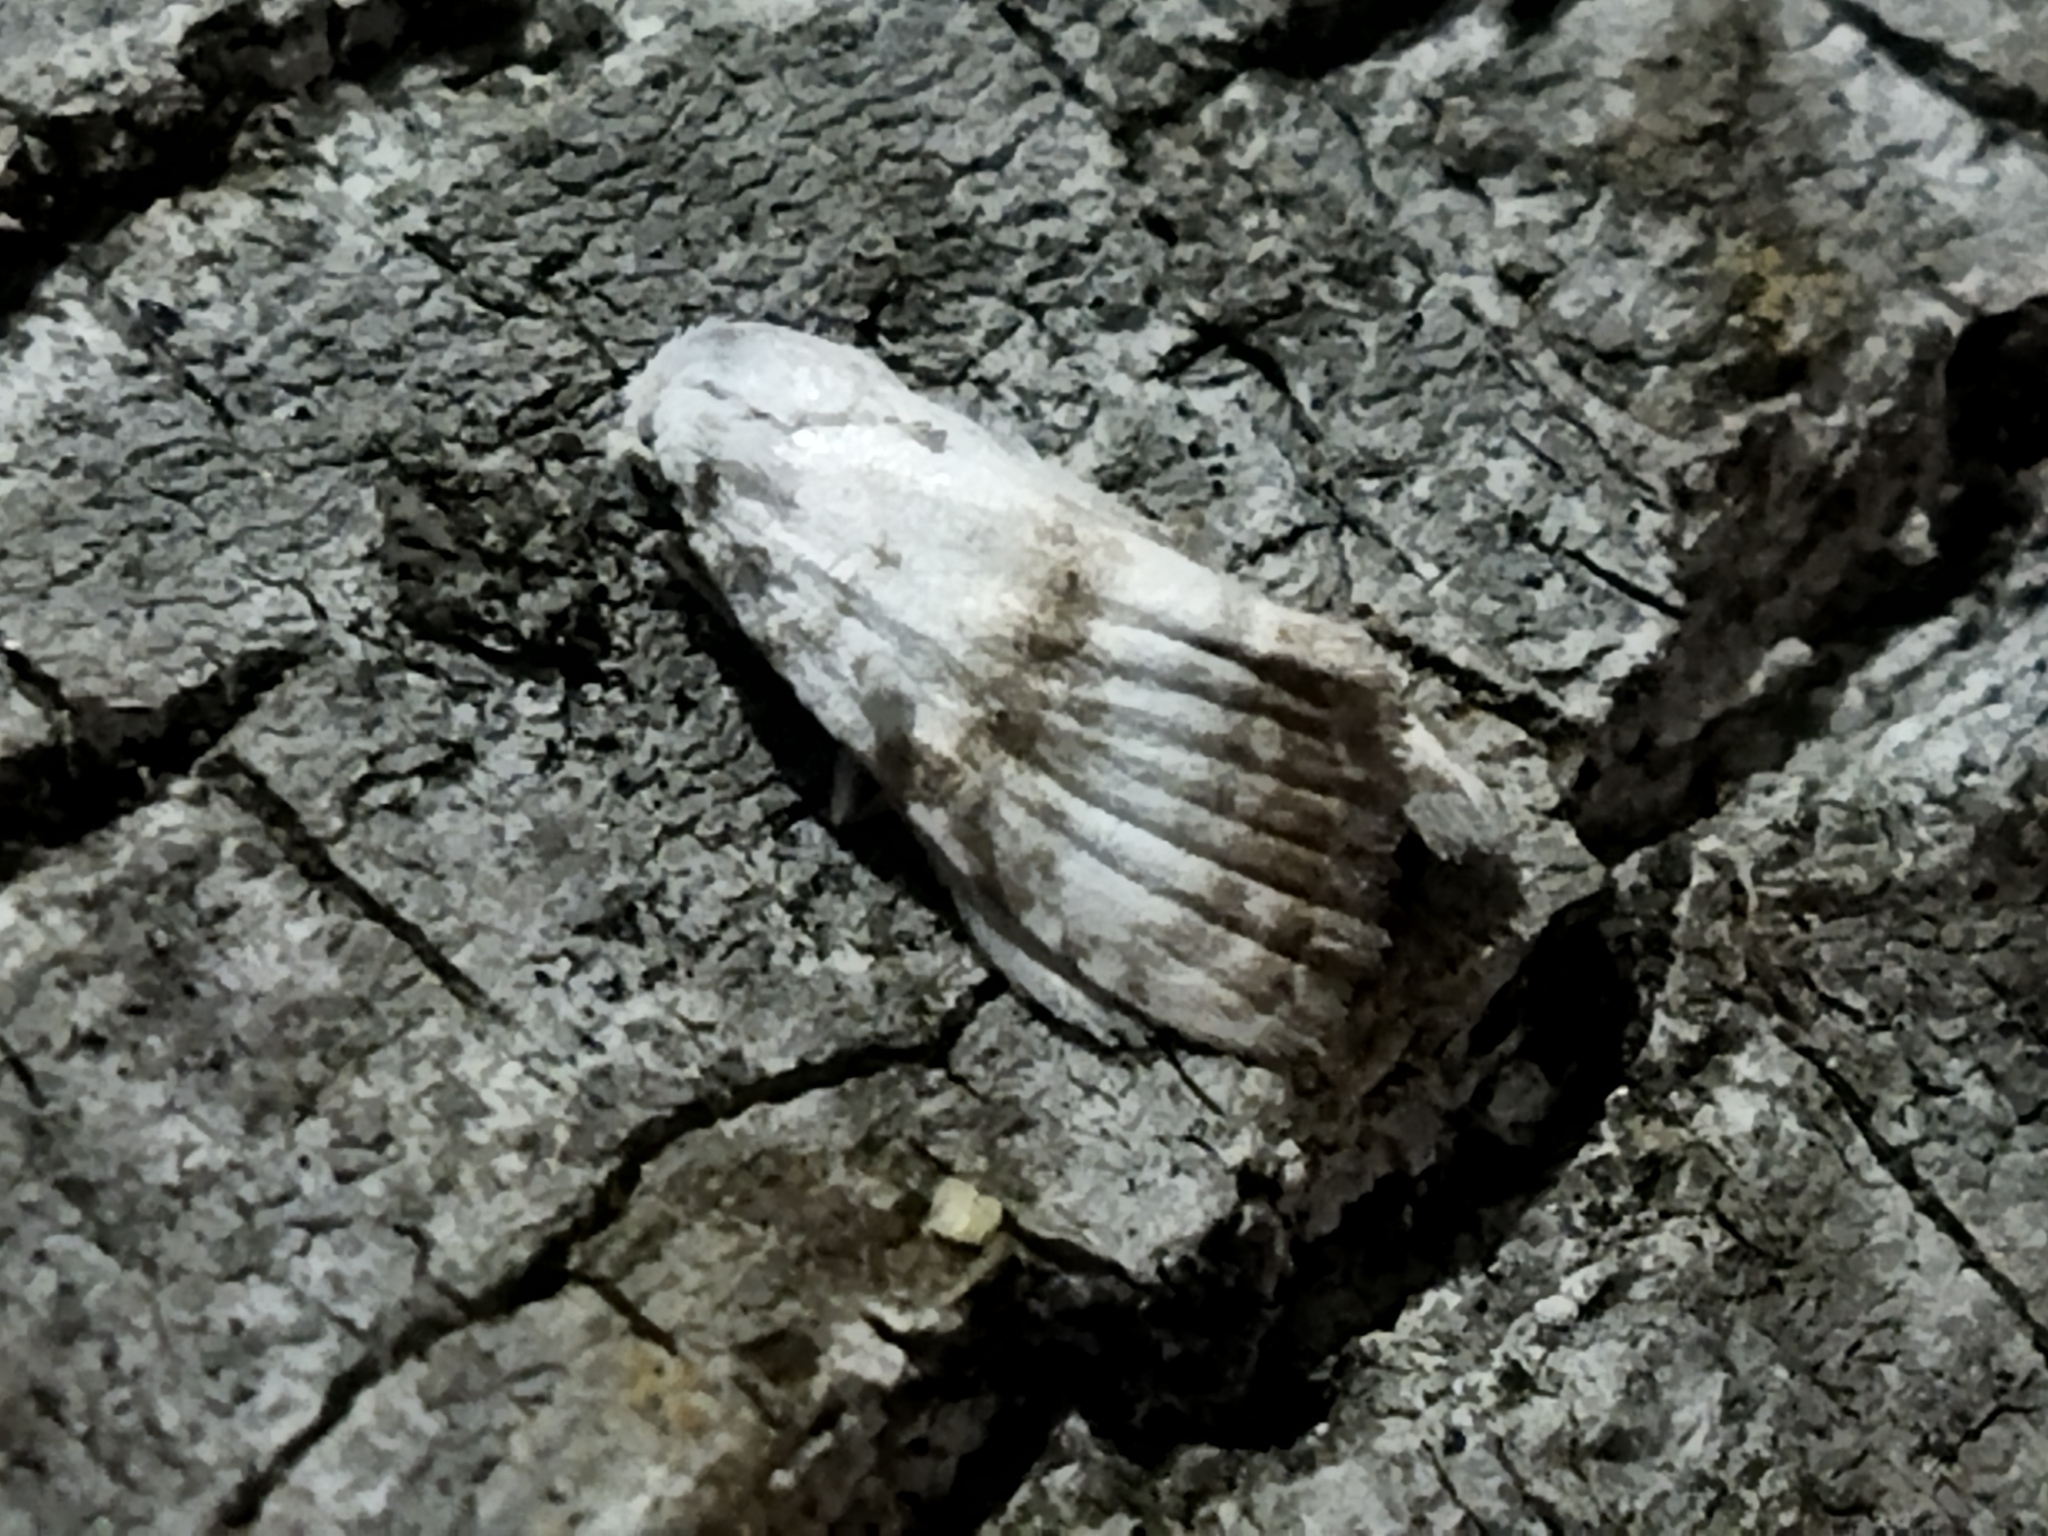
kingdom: Animalia
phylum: Arthropoda
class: Insecta
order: Lepidoptera
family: Nolidae
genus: Meganola
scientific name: Meganola albula
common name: Kent black arches
